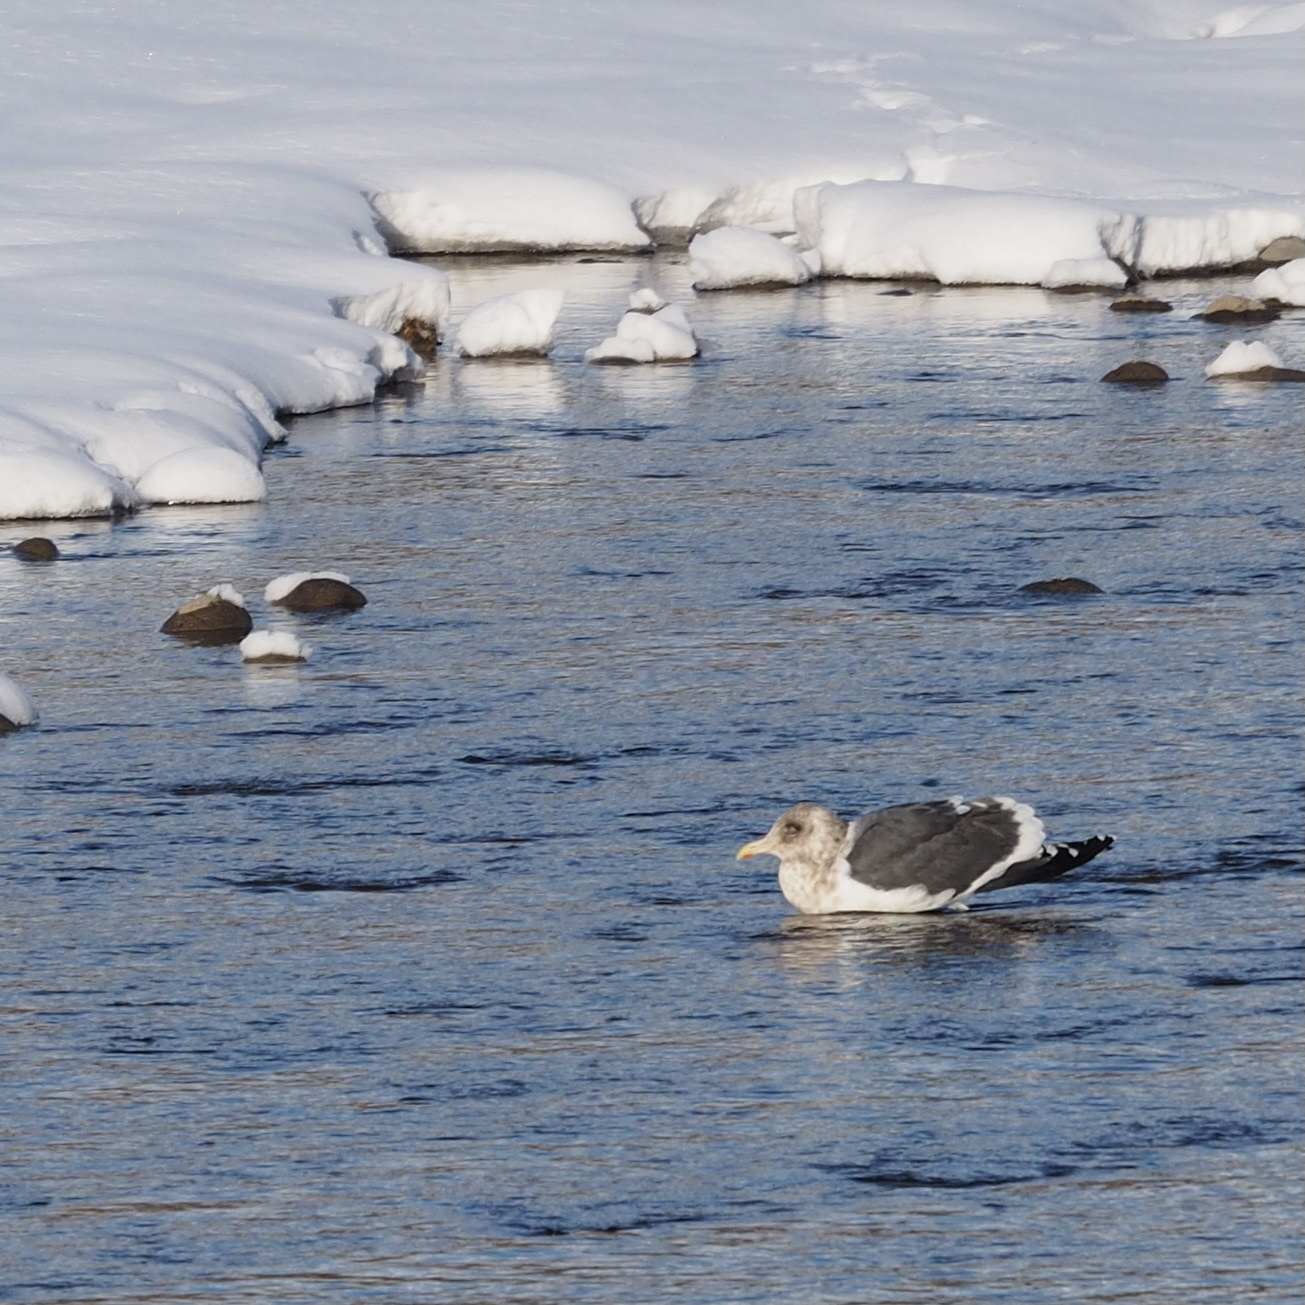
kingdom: Animalia
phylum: Chordata
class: Aves
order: Charadriiformes
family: Laridae
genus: Larus
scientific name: Larus schistisagus
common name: Slaty-backed gull
